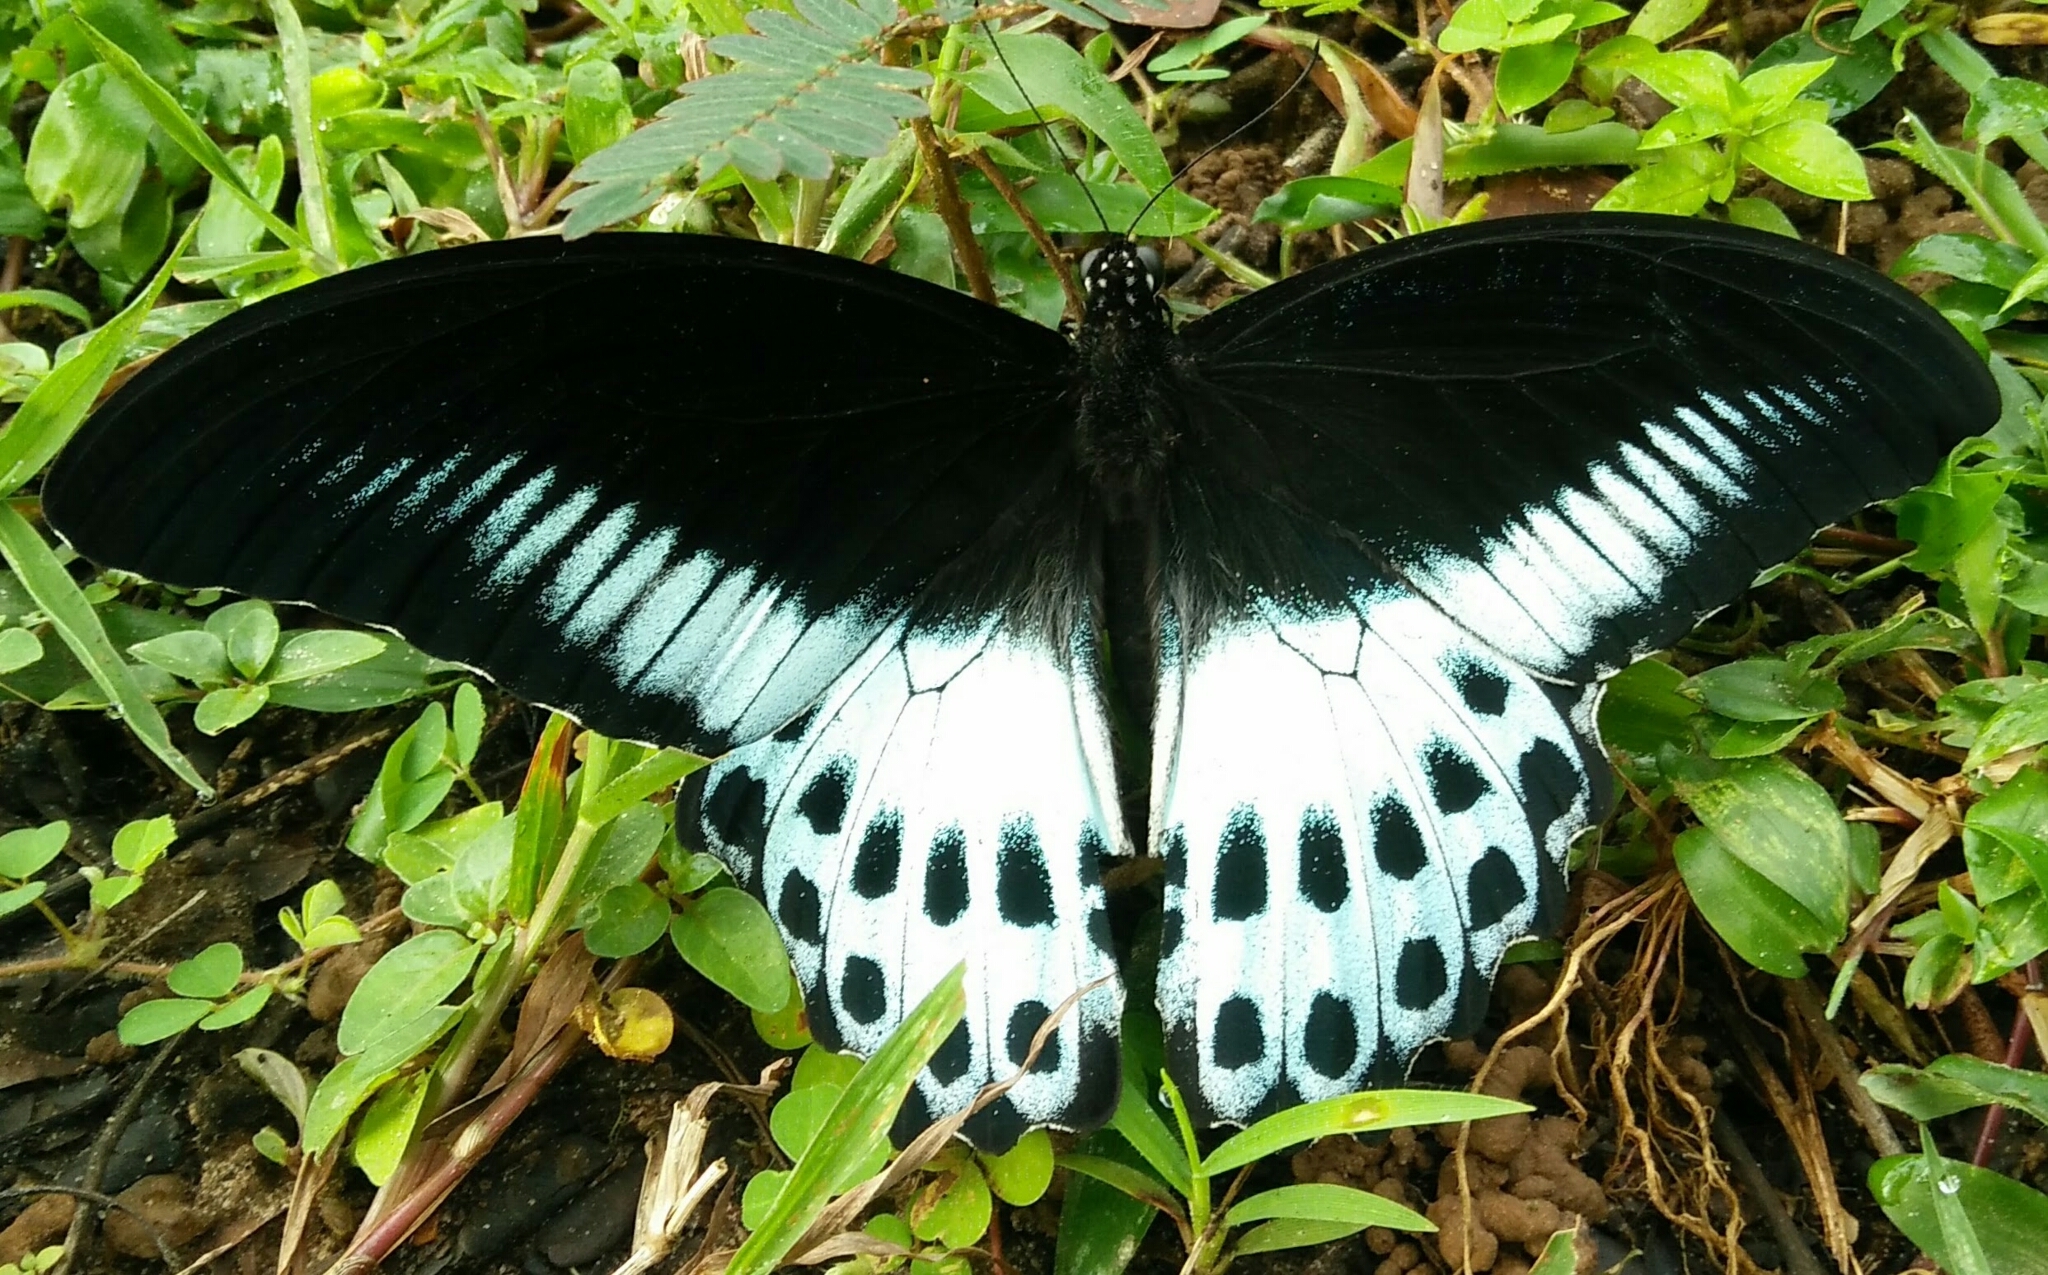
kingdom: Animalia
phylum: Arthropoda
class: Insecta
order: Lepidoptera
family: Papilionidae
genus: Papilio
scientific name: Papilio memnon
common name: Great mormon
